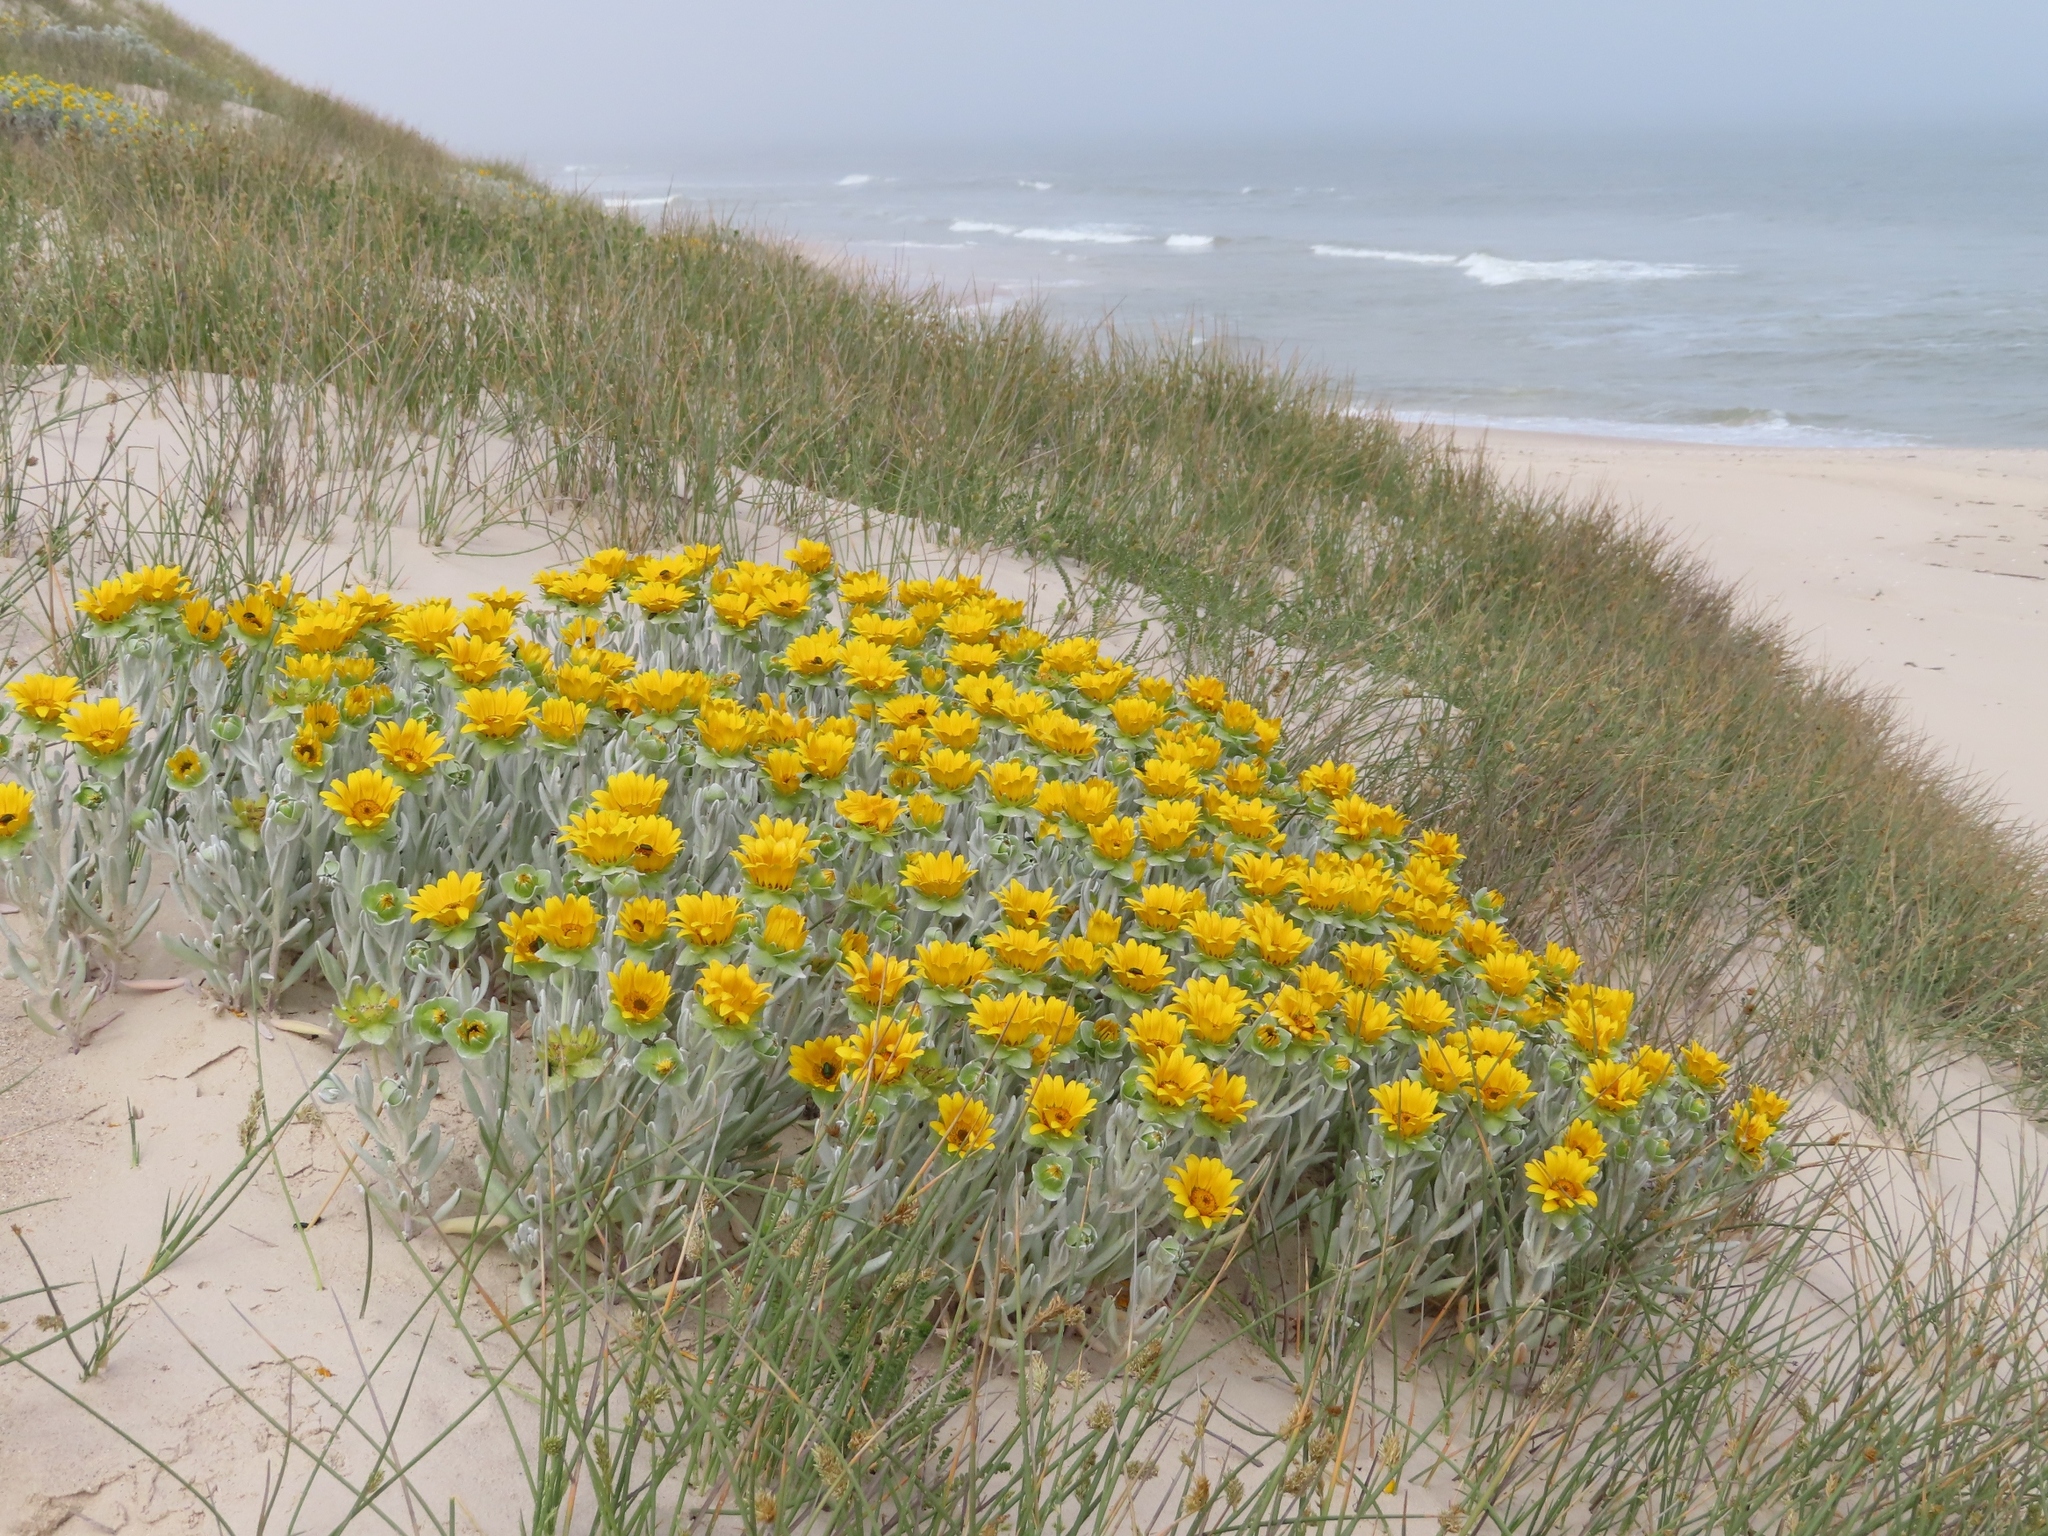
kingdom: Plantae
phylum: Tracheophyta
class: Magnoliopsida
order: Asterales
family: Asteraceae
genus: Didelta
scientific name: Didelta carnosa
